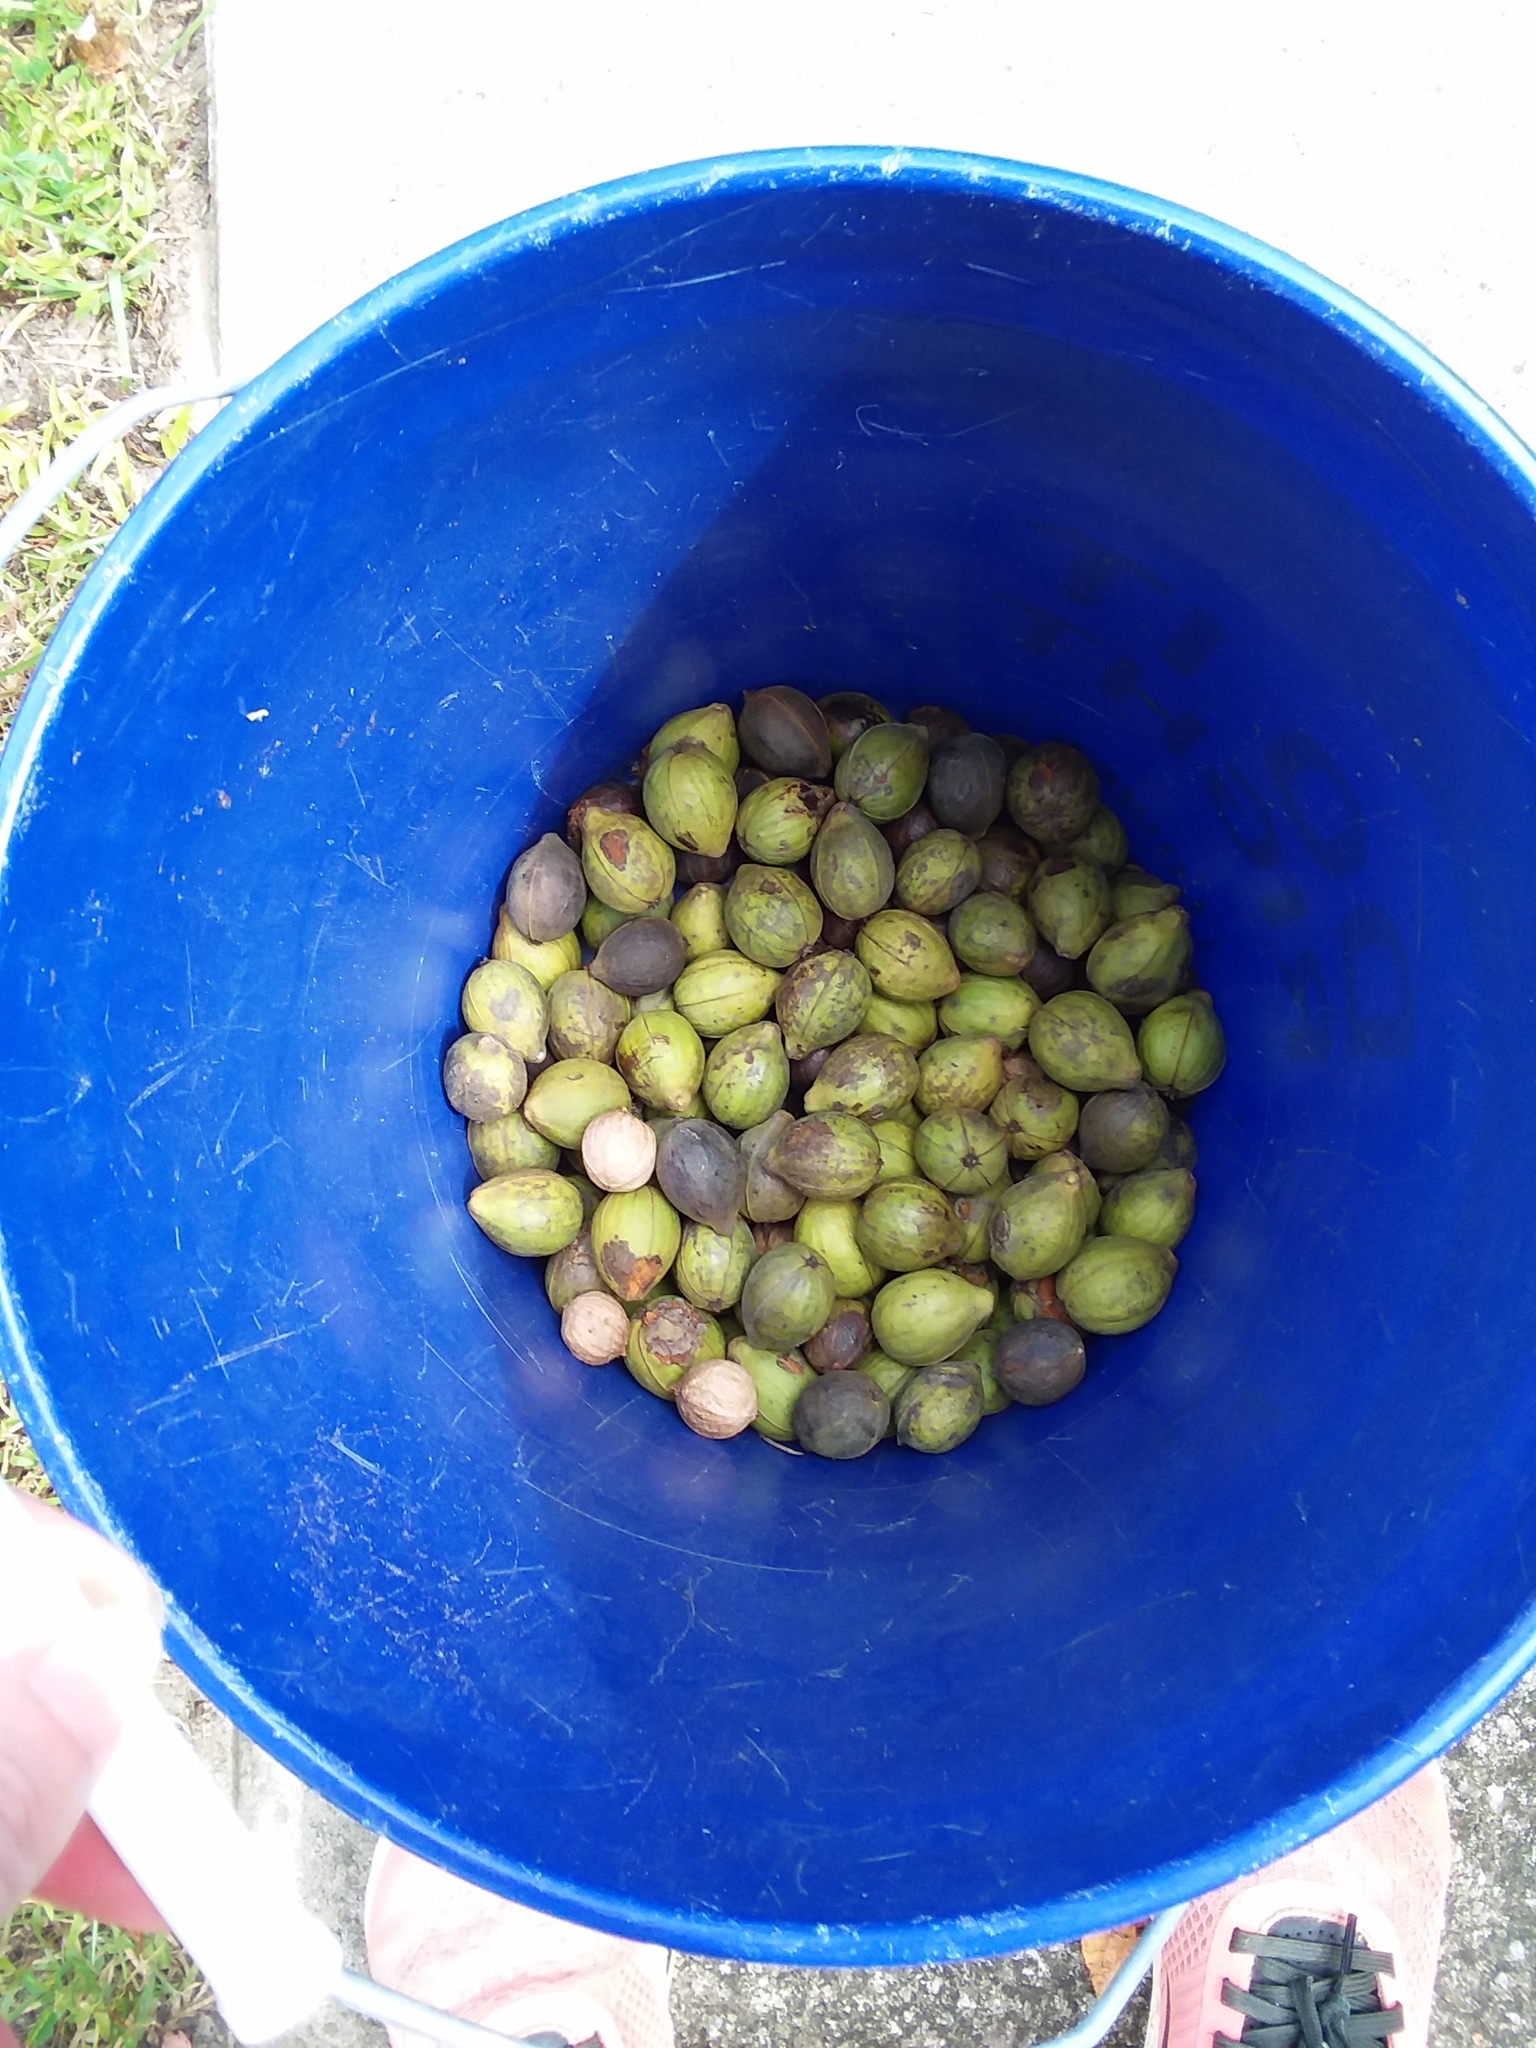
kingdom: Plantae
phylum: Tracheophyta
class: Magnoliopsida
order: Fagales
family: Juglandaceae
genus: Carya
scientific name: Carya glabra
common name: Pignut hickory
